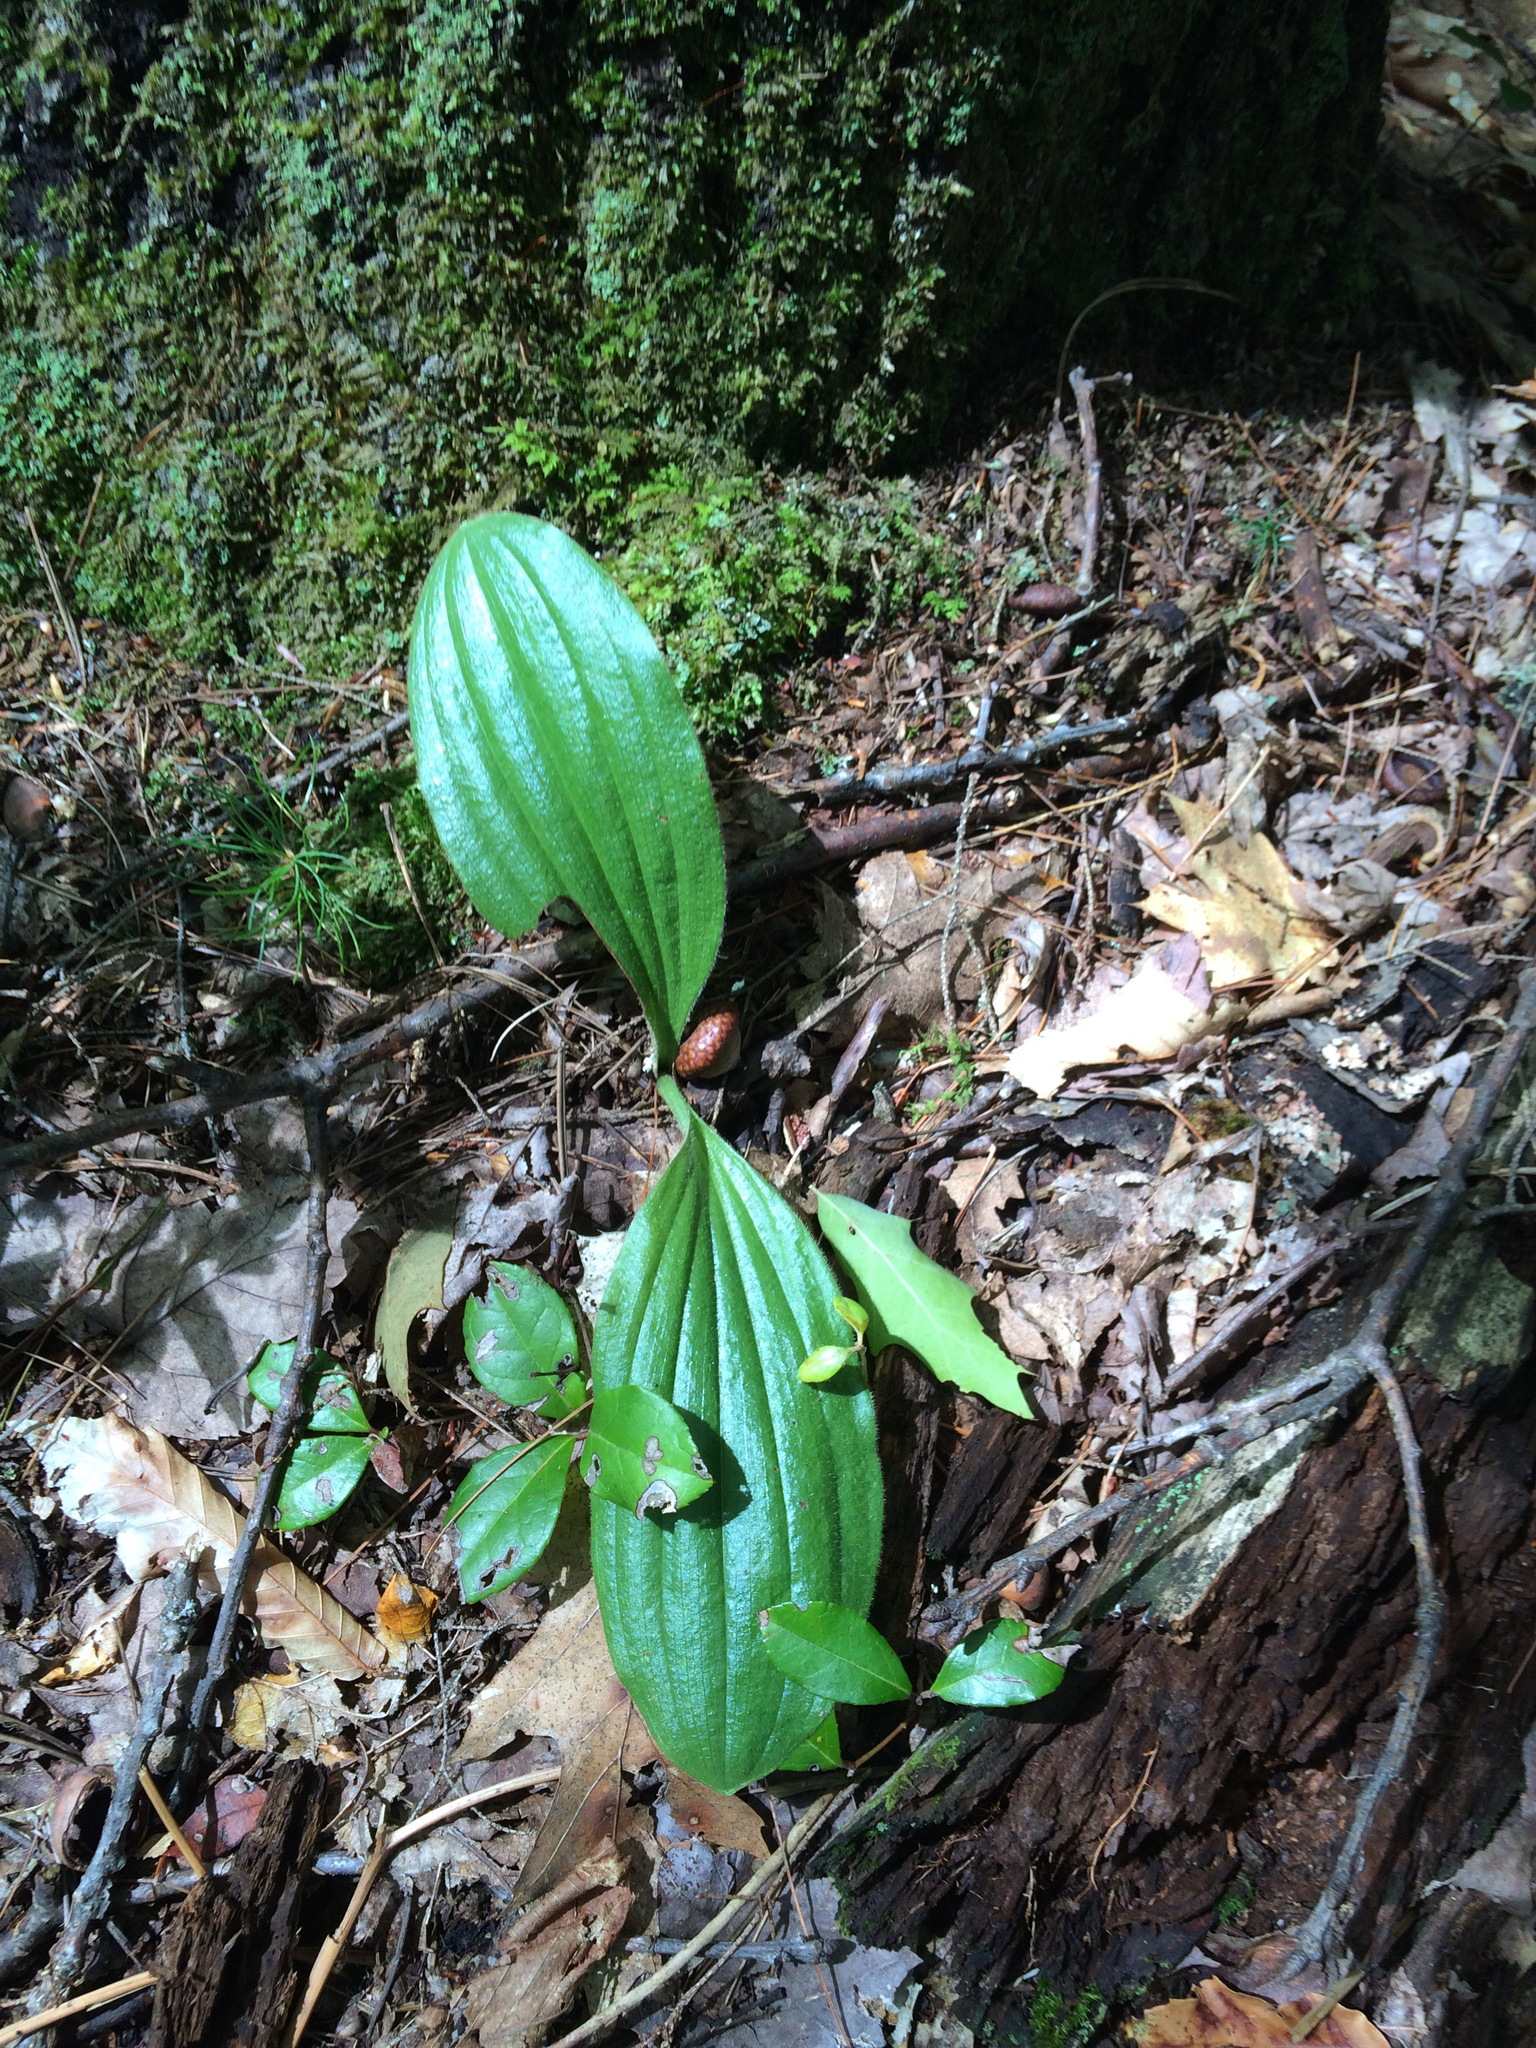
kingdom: Plantae
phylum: Tracheophyta
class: Liliopsida
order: Asparagales
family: Orchidaceae
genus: Cypripedium
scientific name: Cypripedium acaule
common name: Pink lady's-slipper
